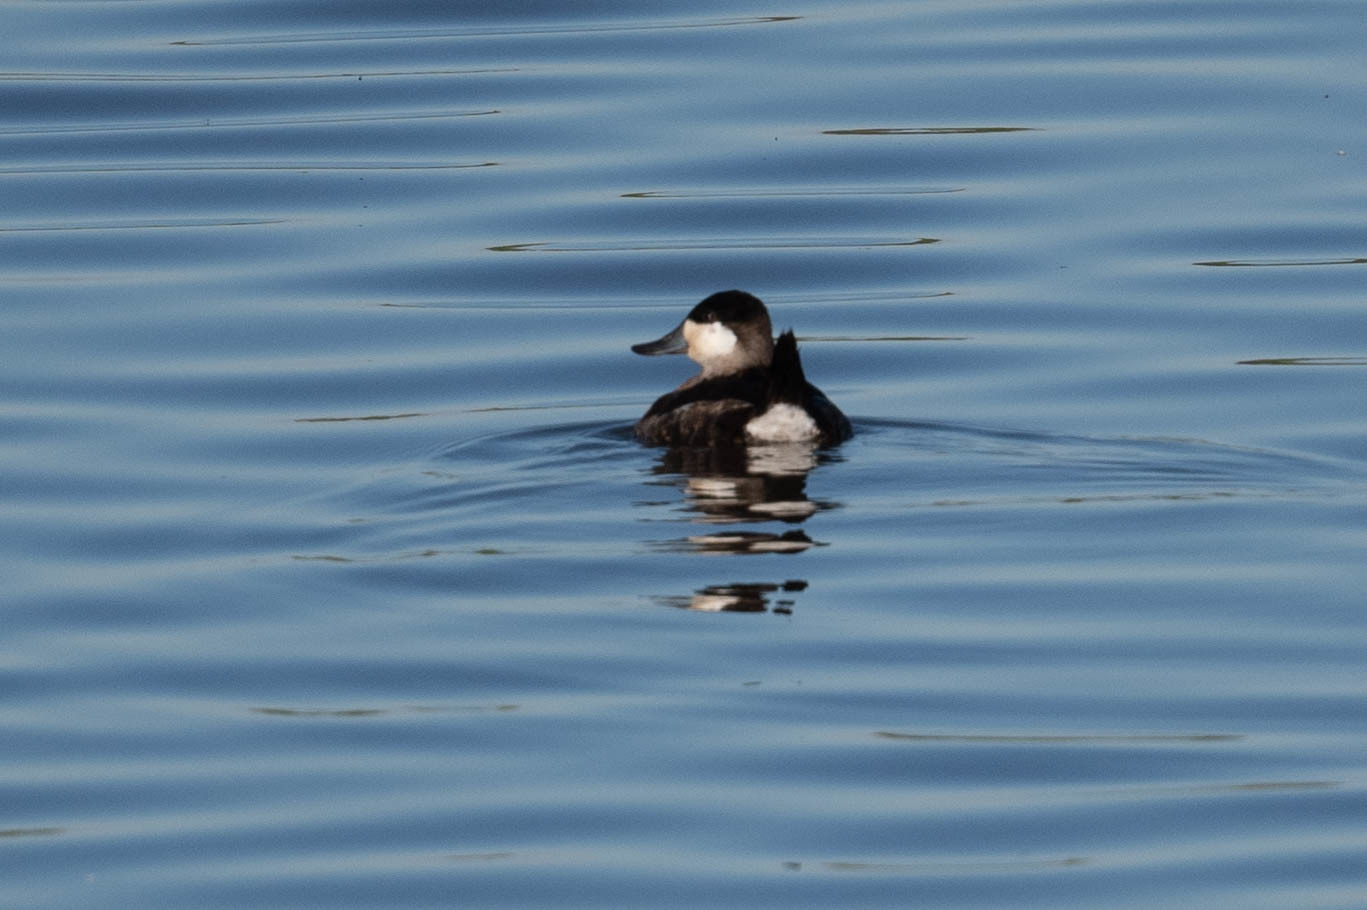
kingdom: Animalia
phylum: Chordata
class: Aves
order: Anseriformes
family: Anatidae
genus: Oxyura
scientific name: Oxyura jamaicensis
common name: Ruddy duck
